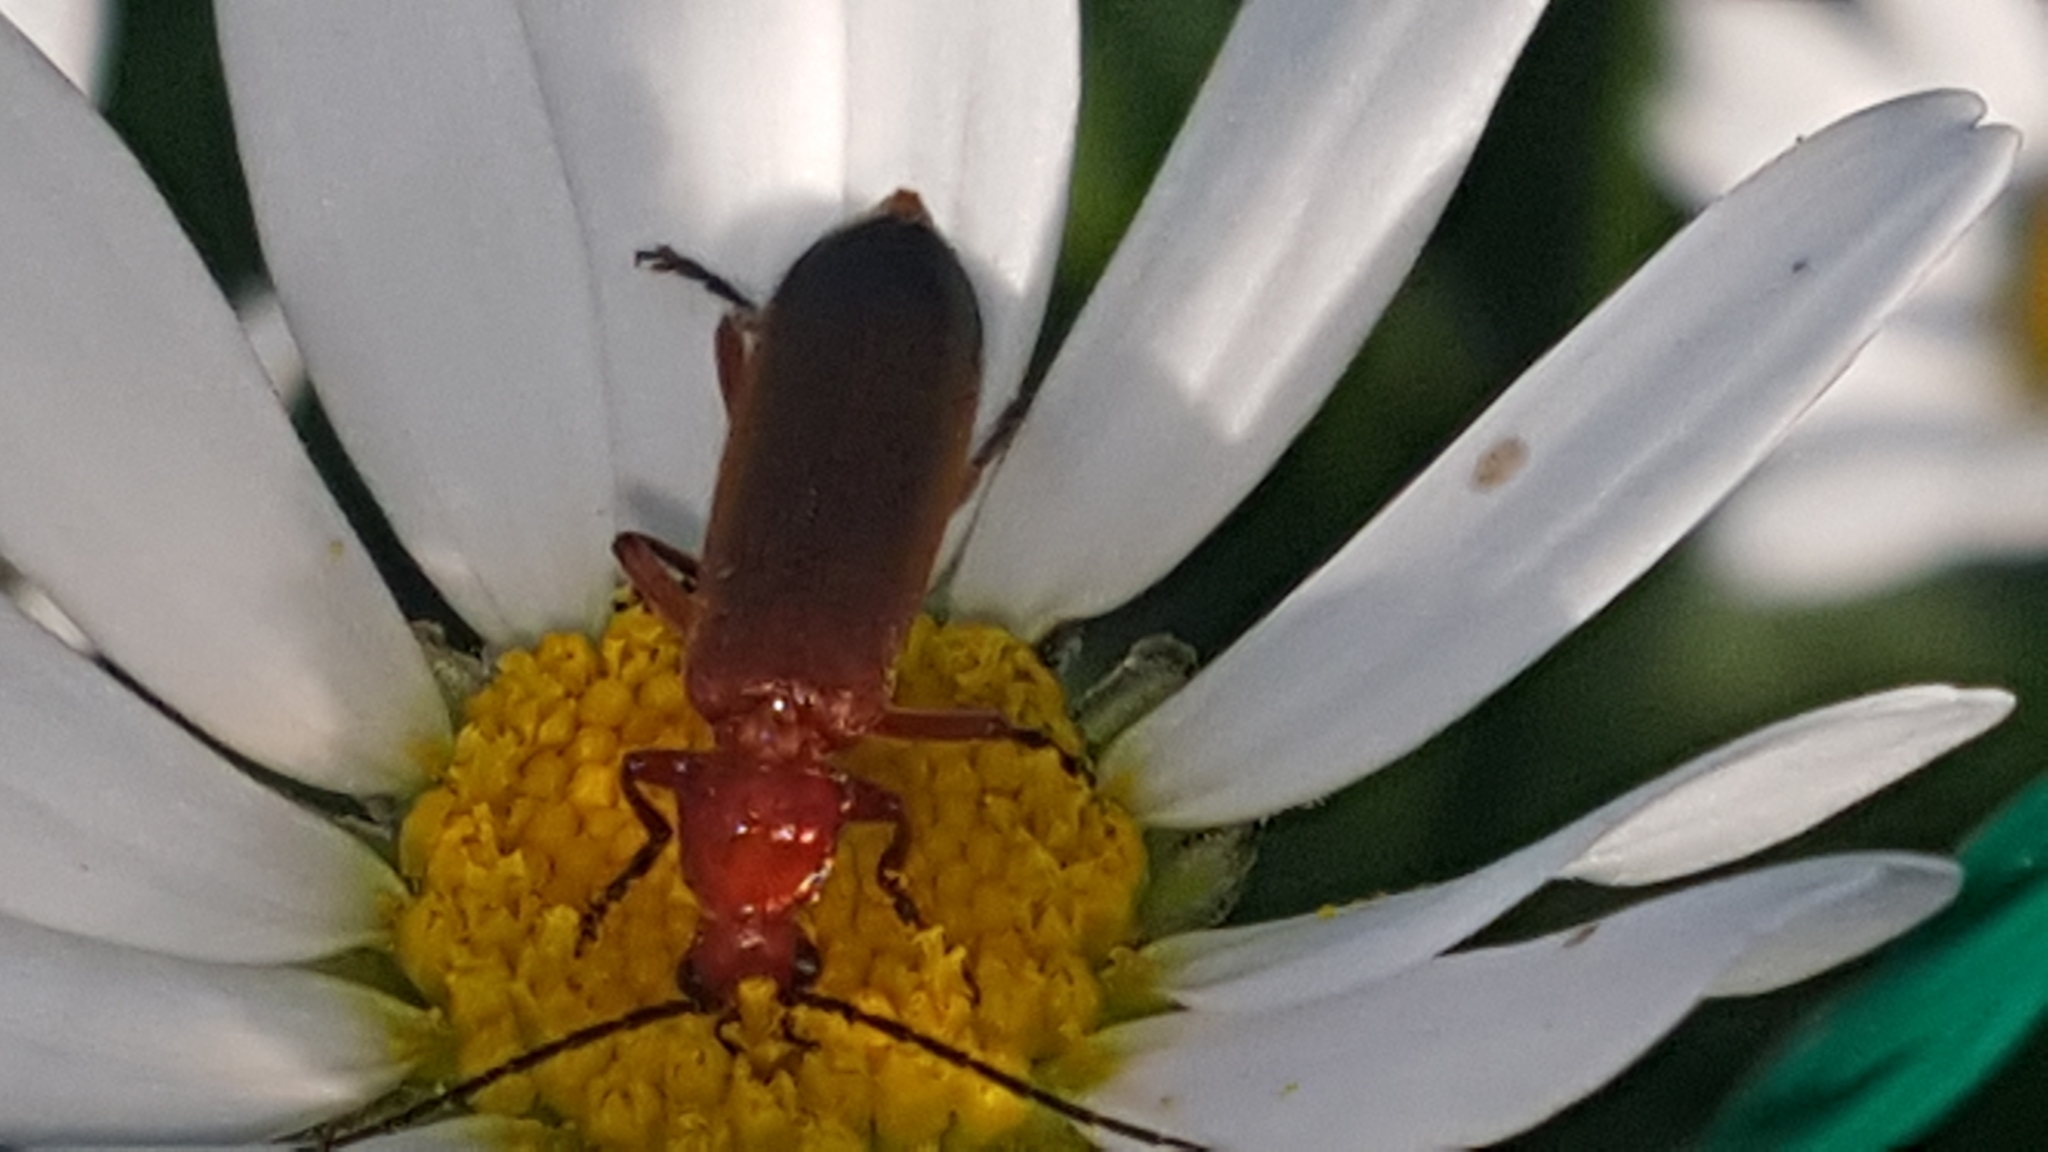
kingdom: Animalia
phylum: Arthropoda
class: Insecta
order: Coleoptera
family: Cantharidae
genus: Rhagonycha
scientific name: Rhagonycha fulva
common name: Common red soldier beetle
